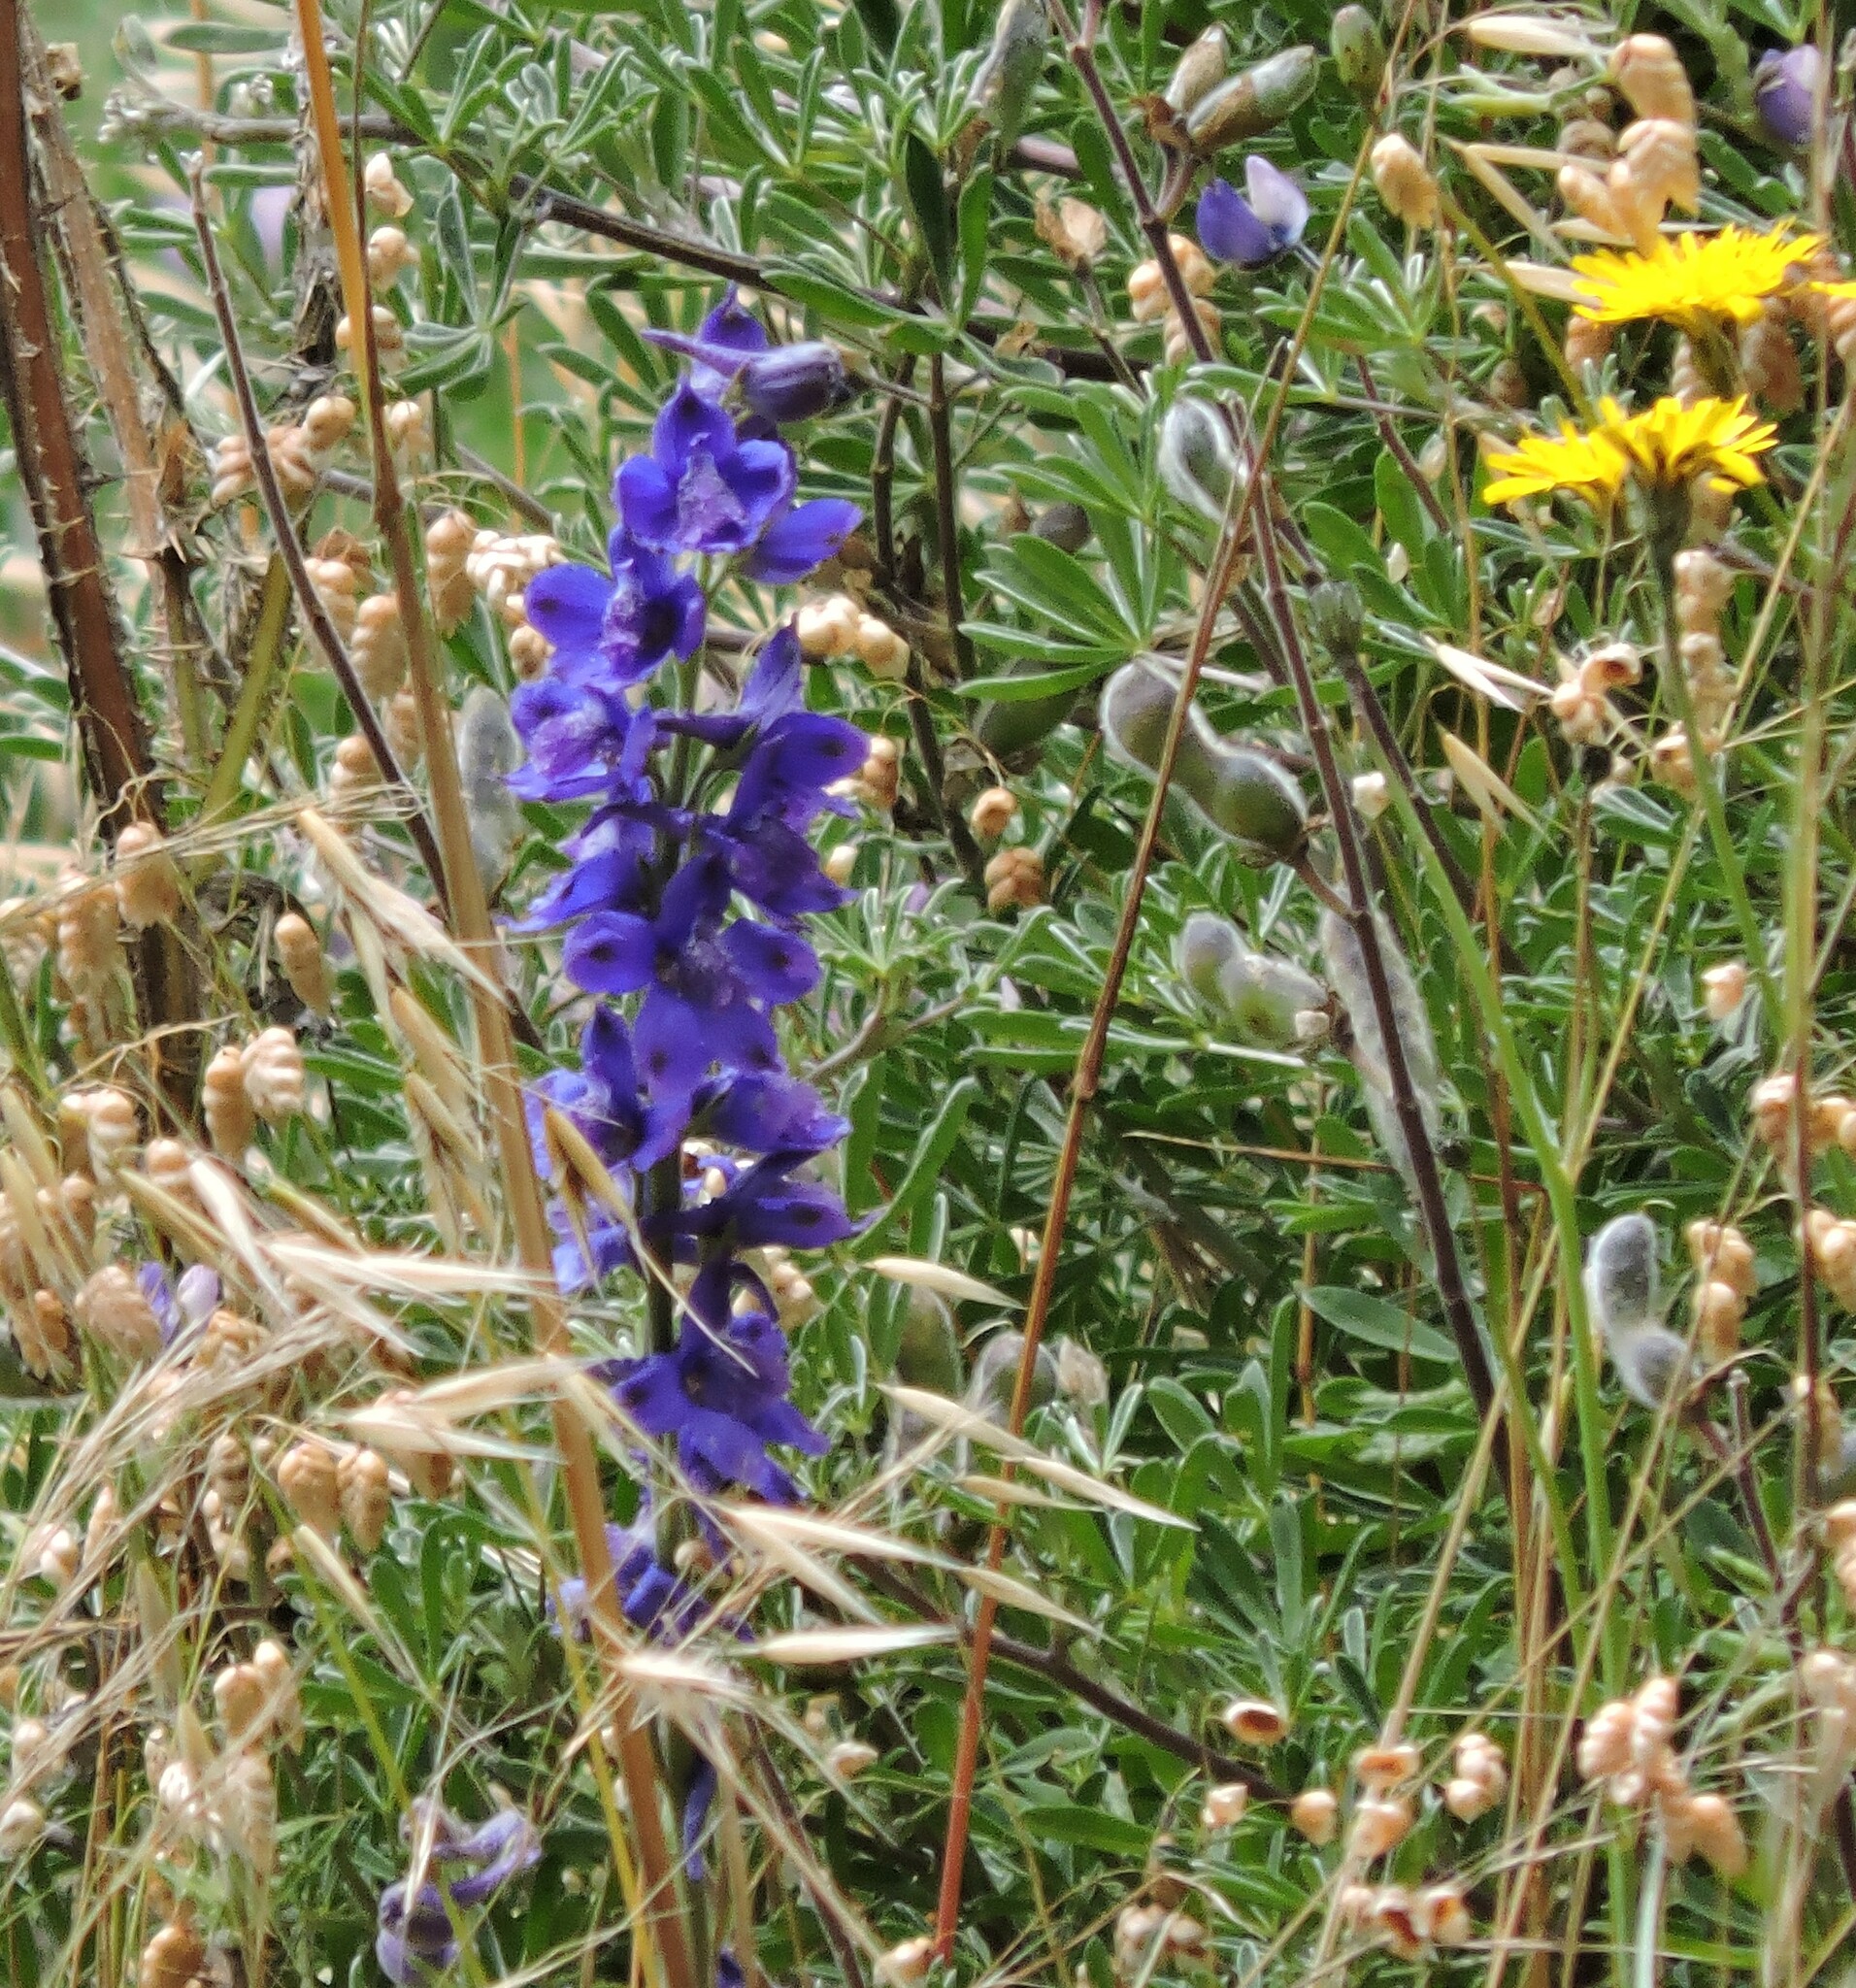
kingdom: Plantae
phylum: Tracheophyta
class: Magnoliopsida
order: Ranunculales
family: Ranunculaceae
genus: Delphinium
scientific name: Delphinium hesperium
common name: Western larkspur
